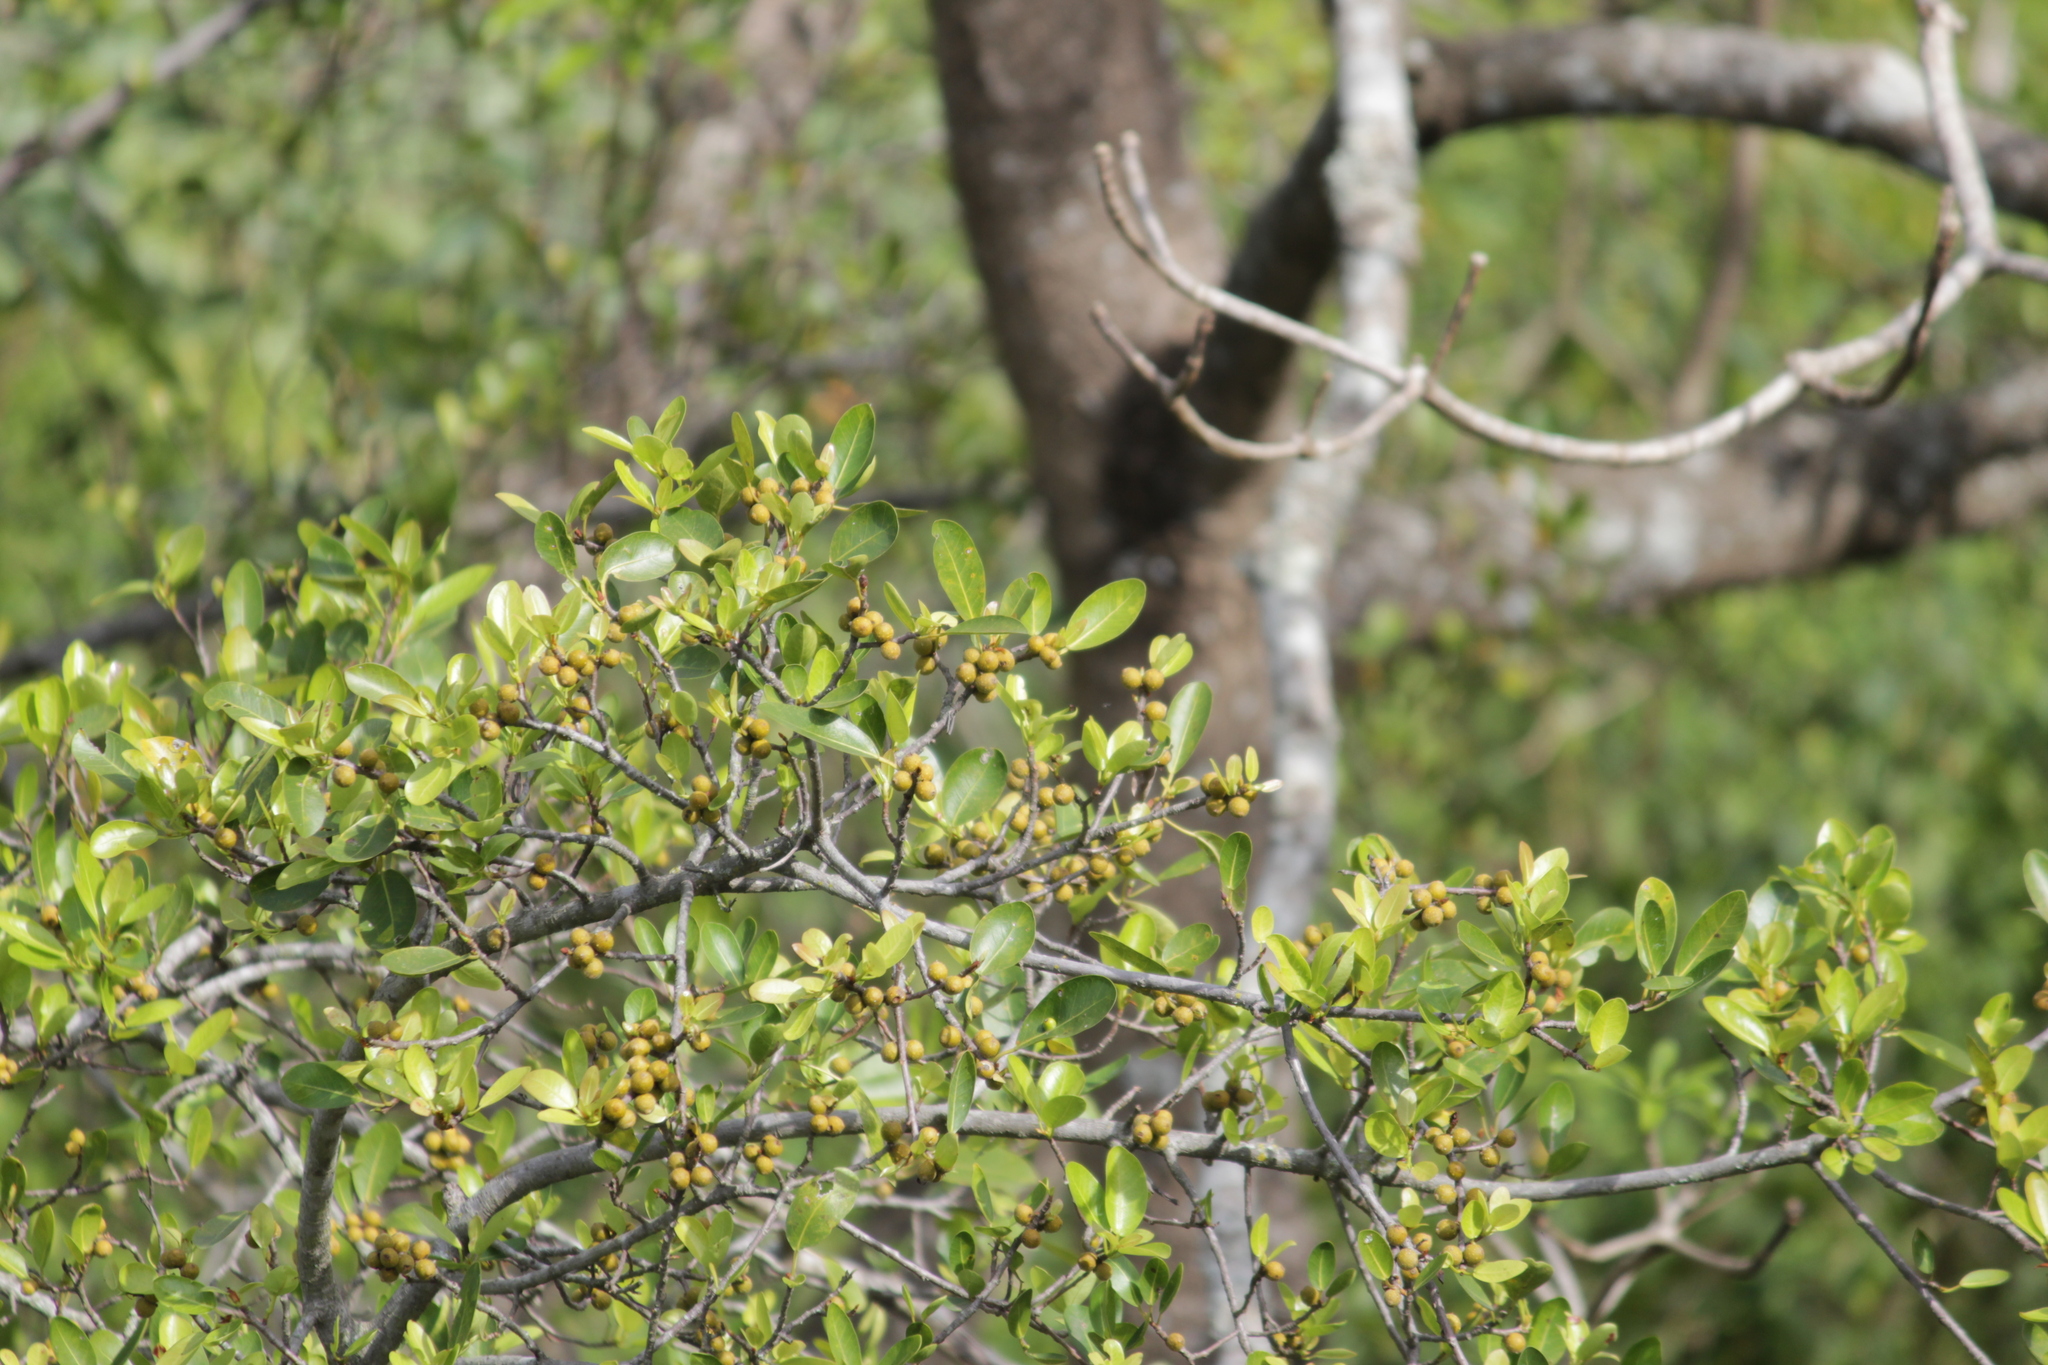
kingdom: Plantae
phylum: Tracheophyta
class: Magnoliopsida
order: Rosales
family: Moraceae
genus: Ficus
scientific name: Ficus thonningii
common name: Fig
